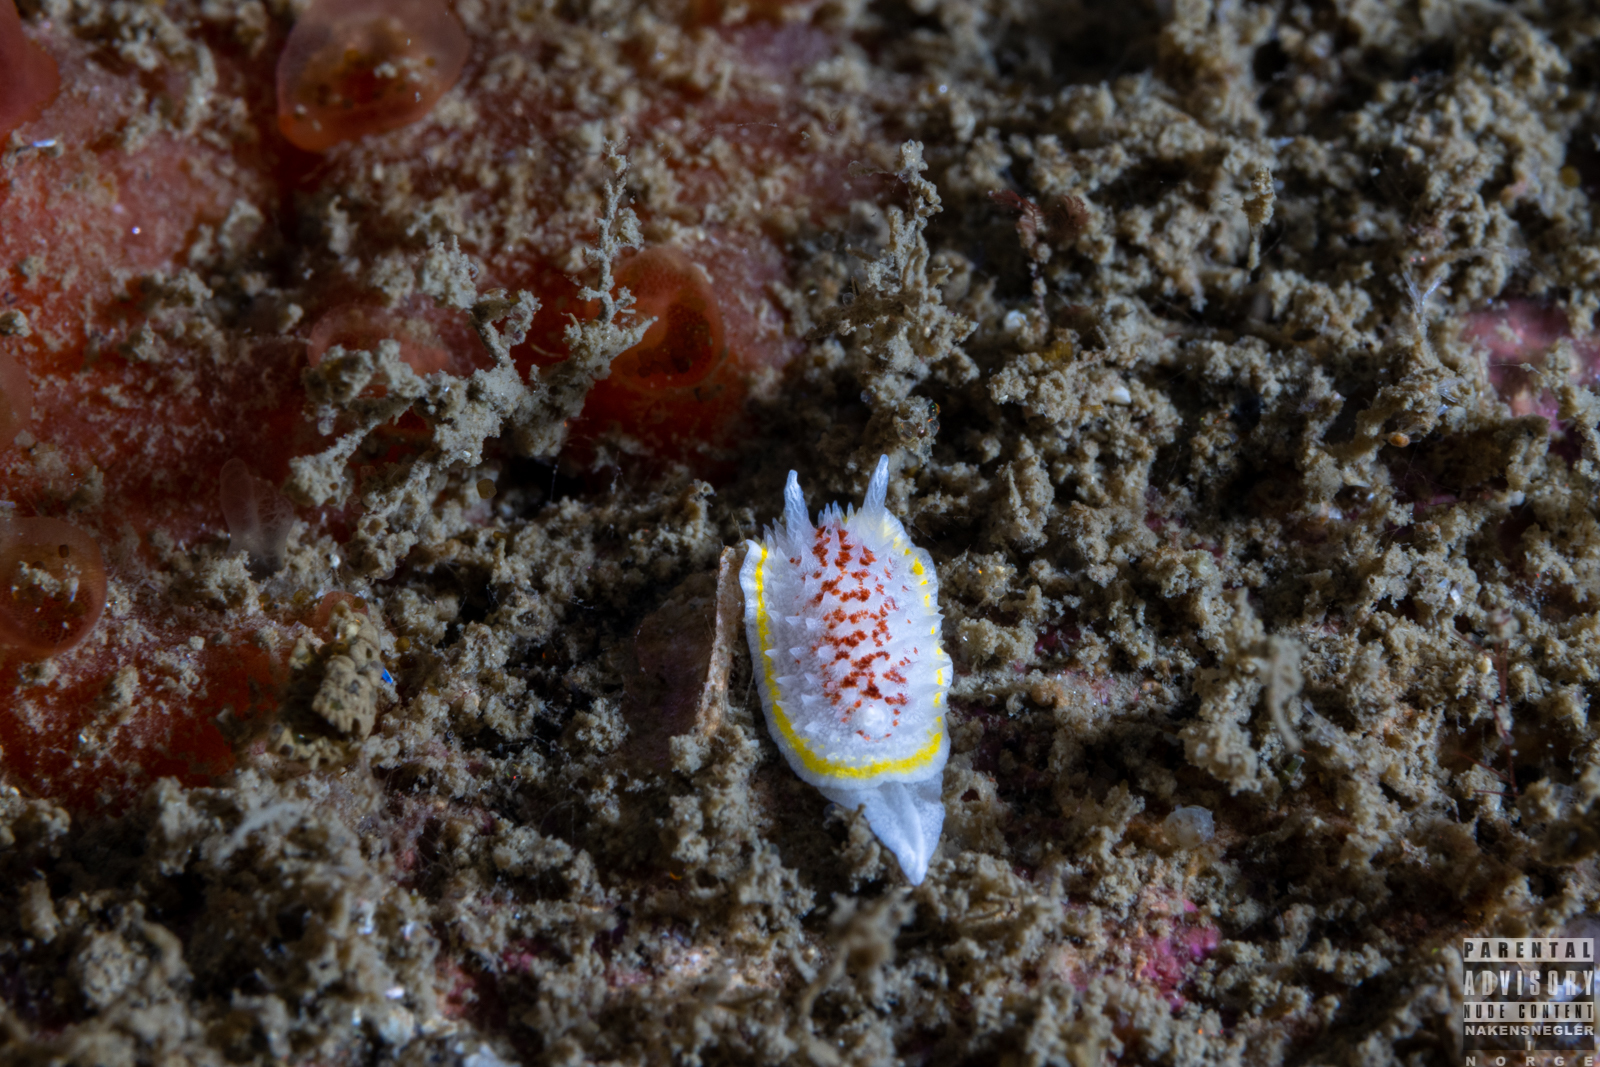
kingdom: Animalia
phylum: Mollusca
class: Gastropoda
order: Nudibranchia
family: Calycidorididae
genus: Diaphorodoris
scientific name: Diaphorodoris luteocincta
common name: Fried egg nudibranch
